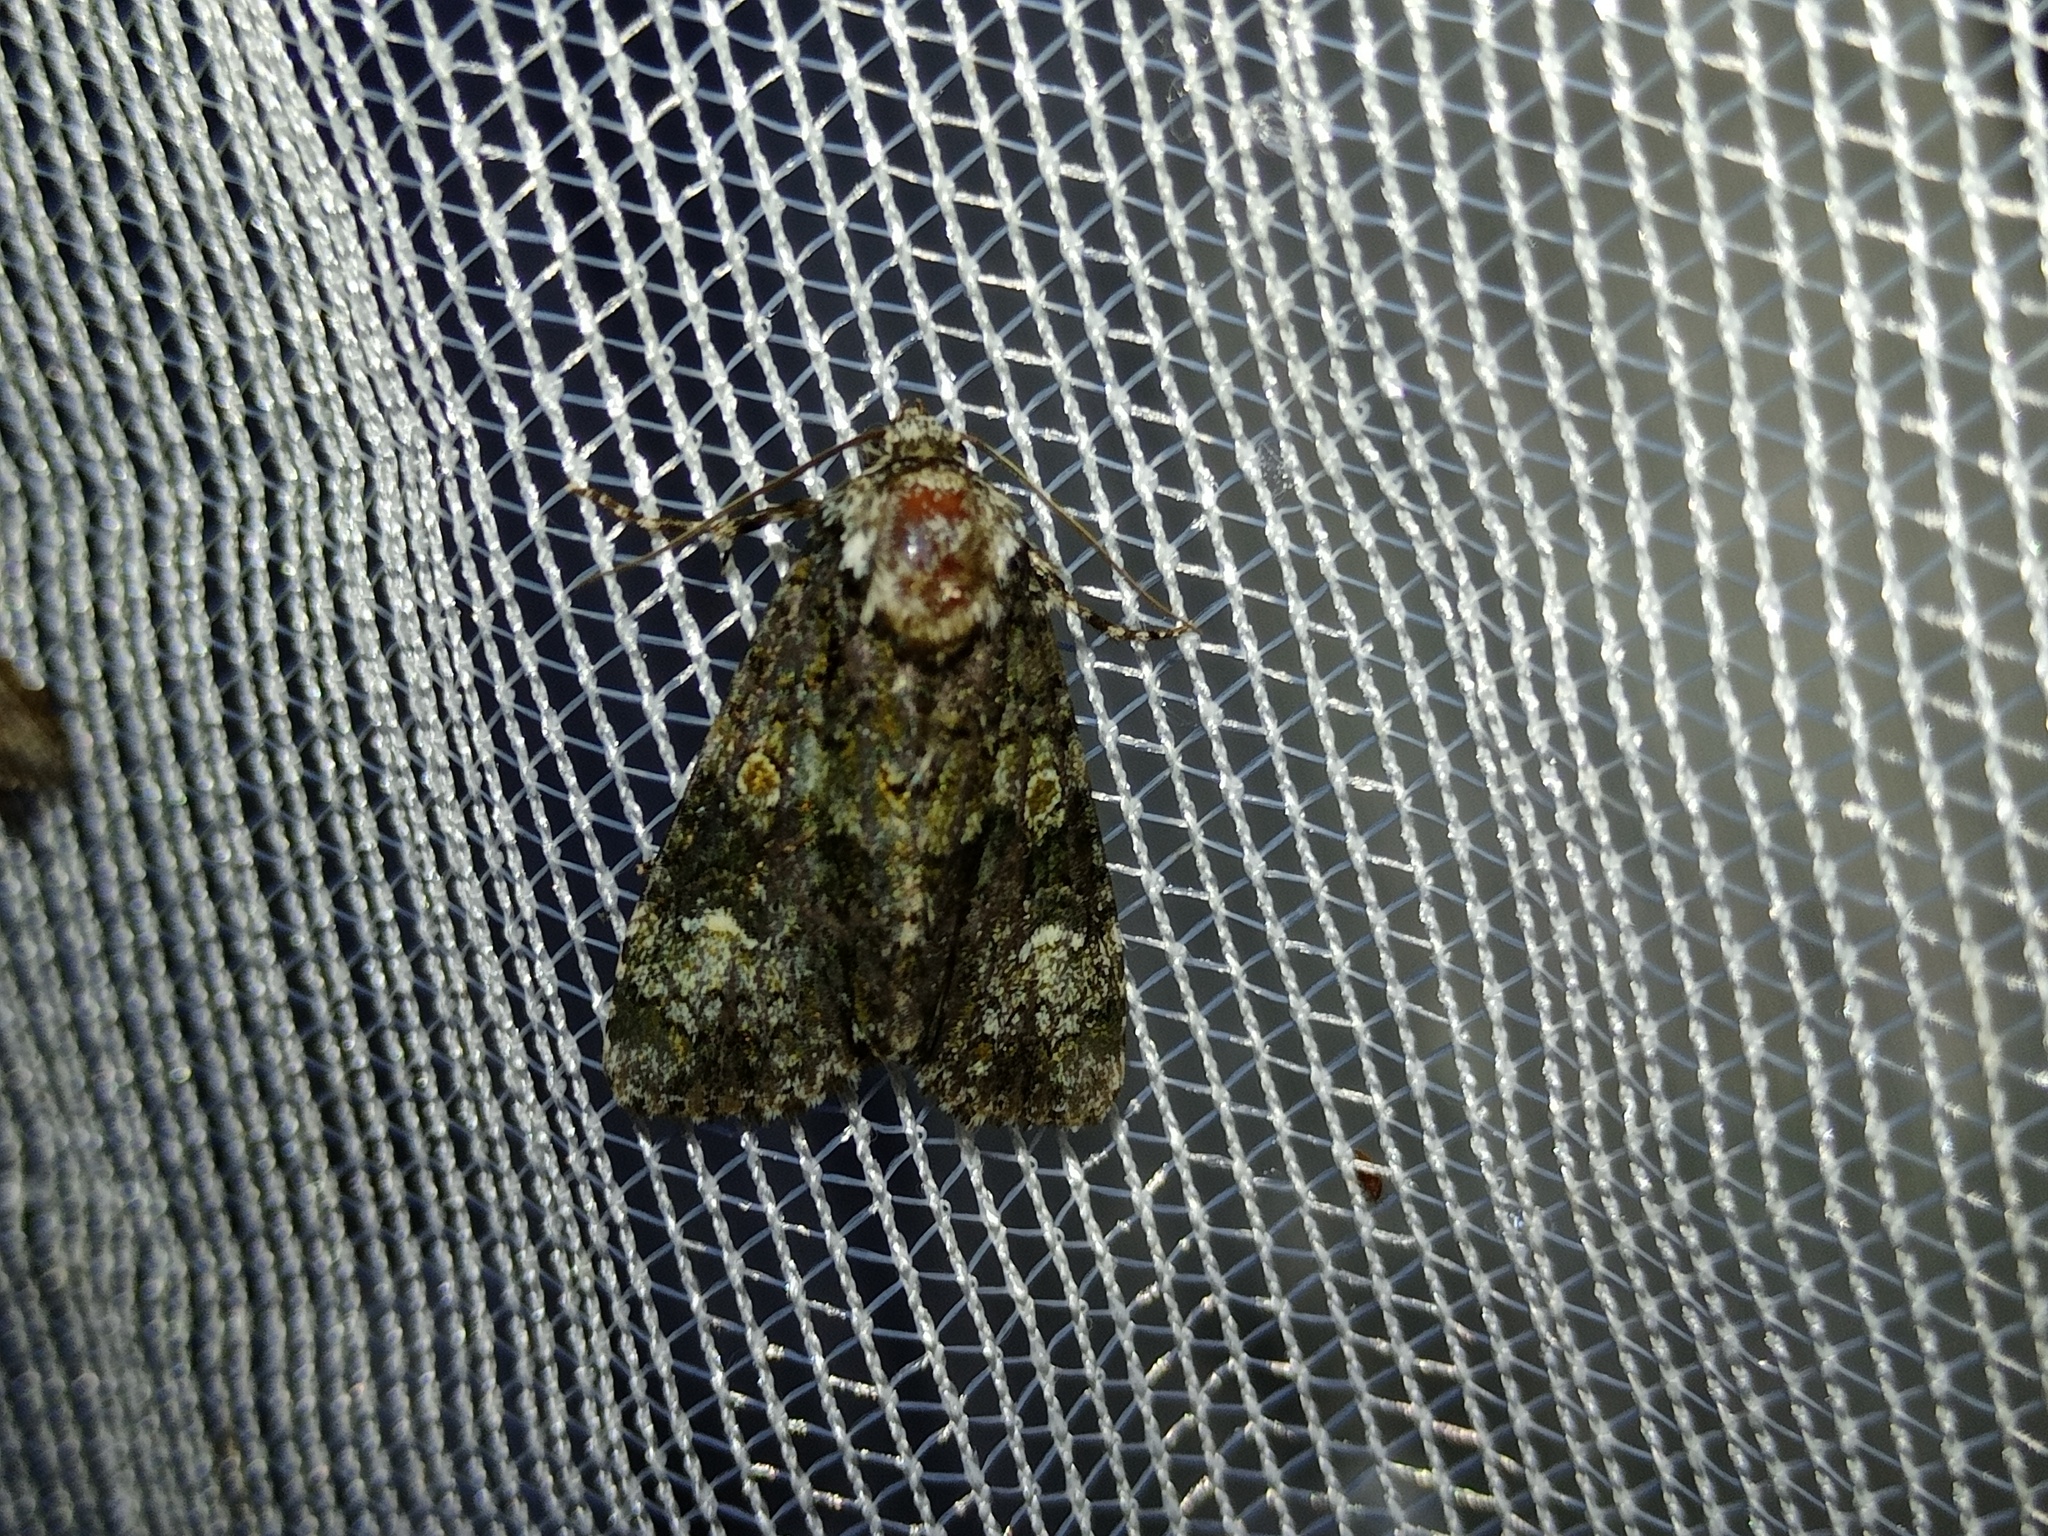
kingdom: Animalia
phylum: Arthropoda
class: Insecta
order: Lepidoptera
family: Noctuidae
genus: Craniophora
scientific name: Craniophora ligustri
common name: Coronet
